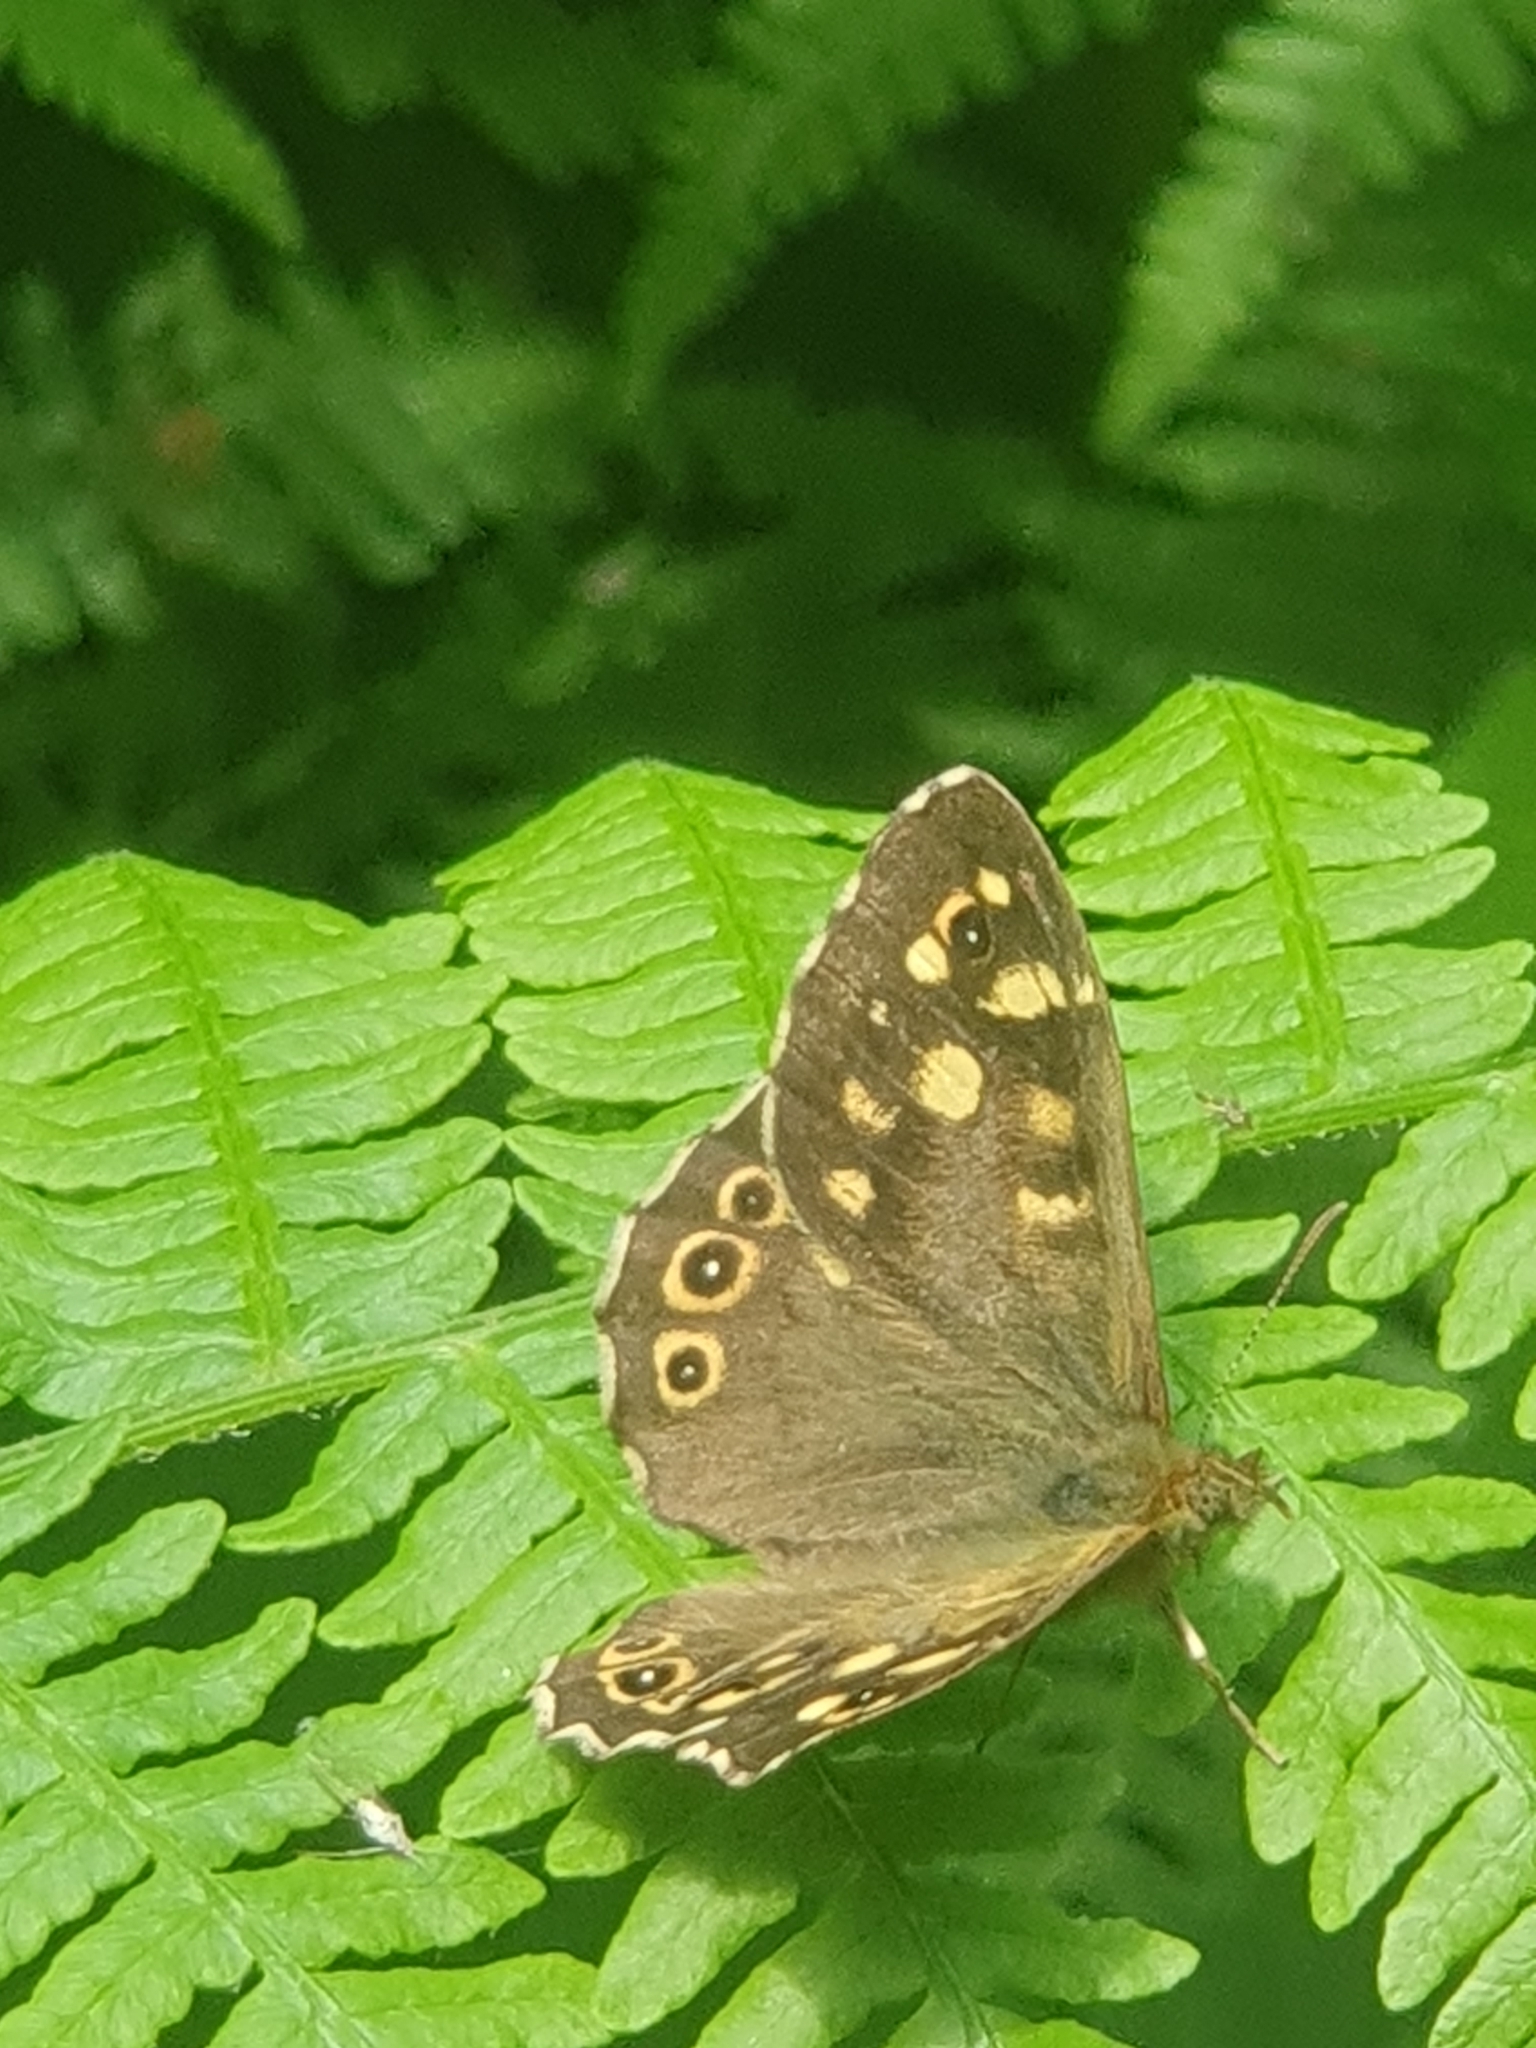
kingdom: Animalia
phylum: Arthropoda
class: Insecta
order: Lepidoptera
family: Nymphalidae
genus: Pararge
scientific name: Pararge aegeria
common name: Speckled wood
